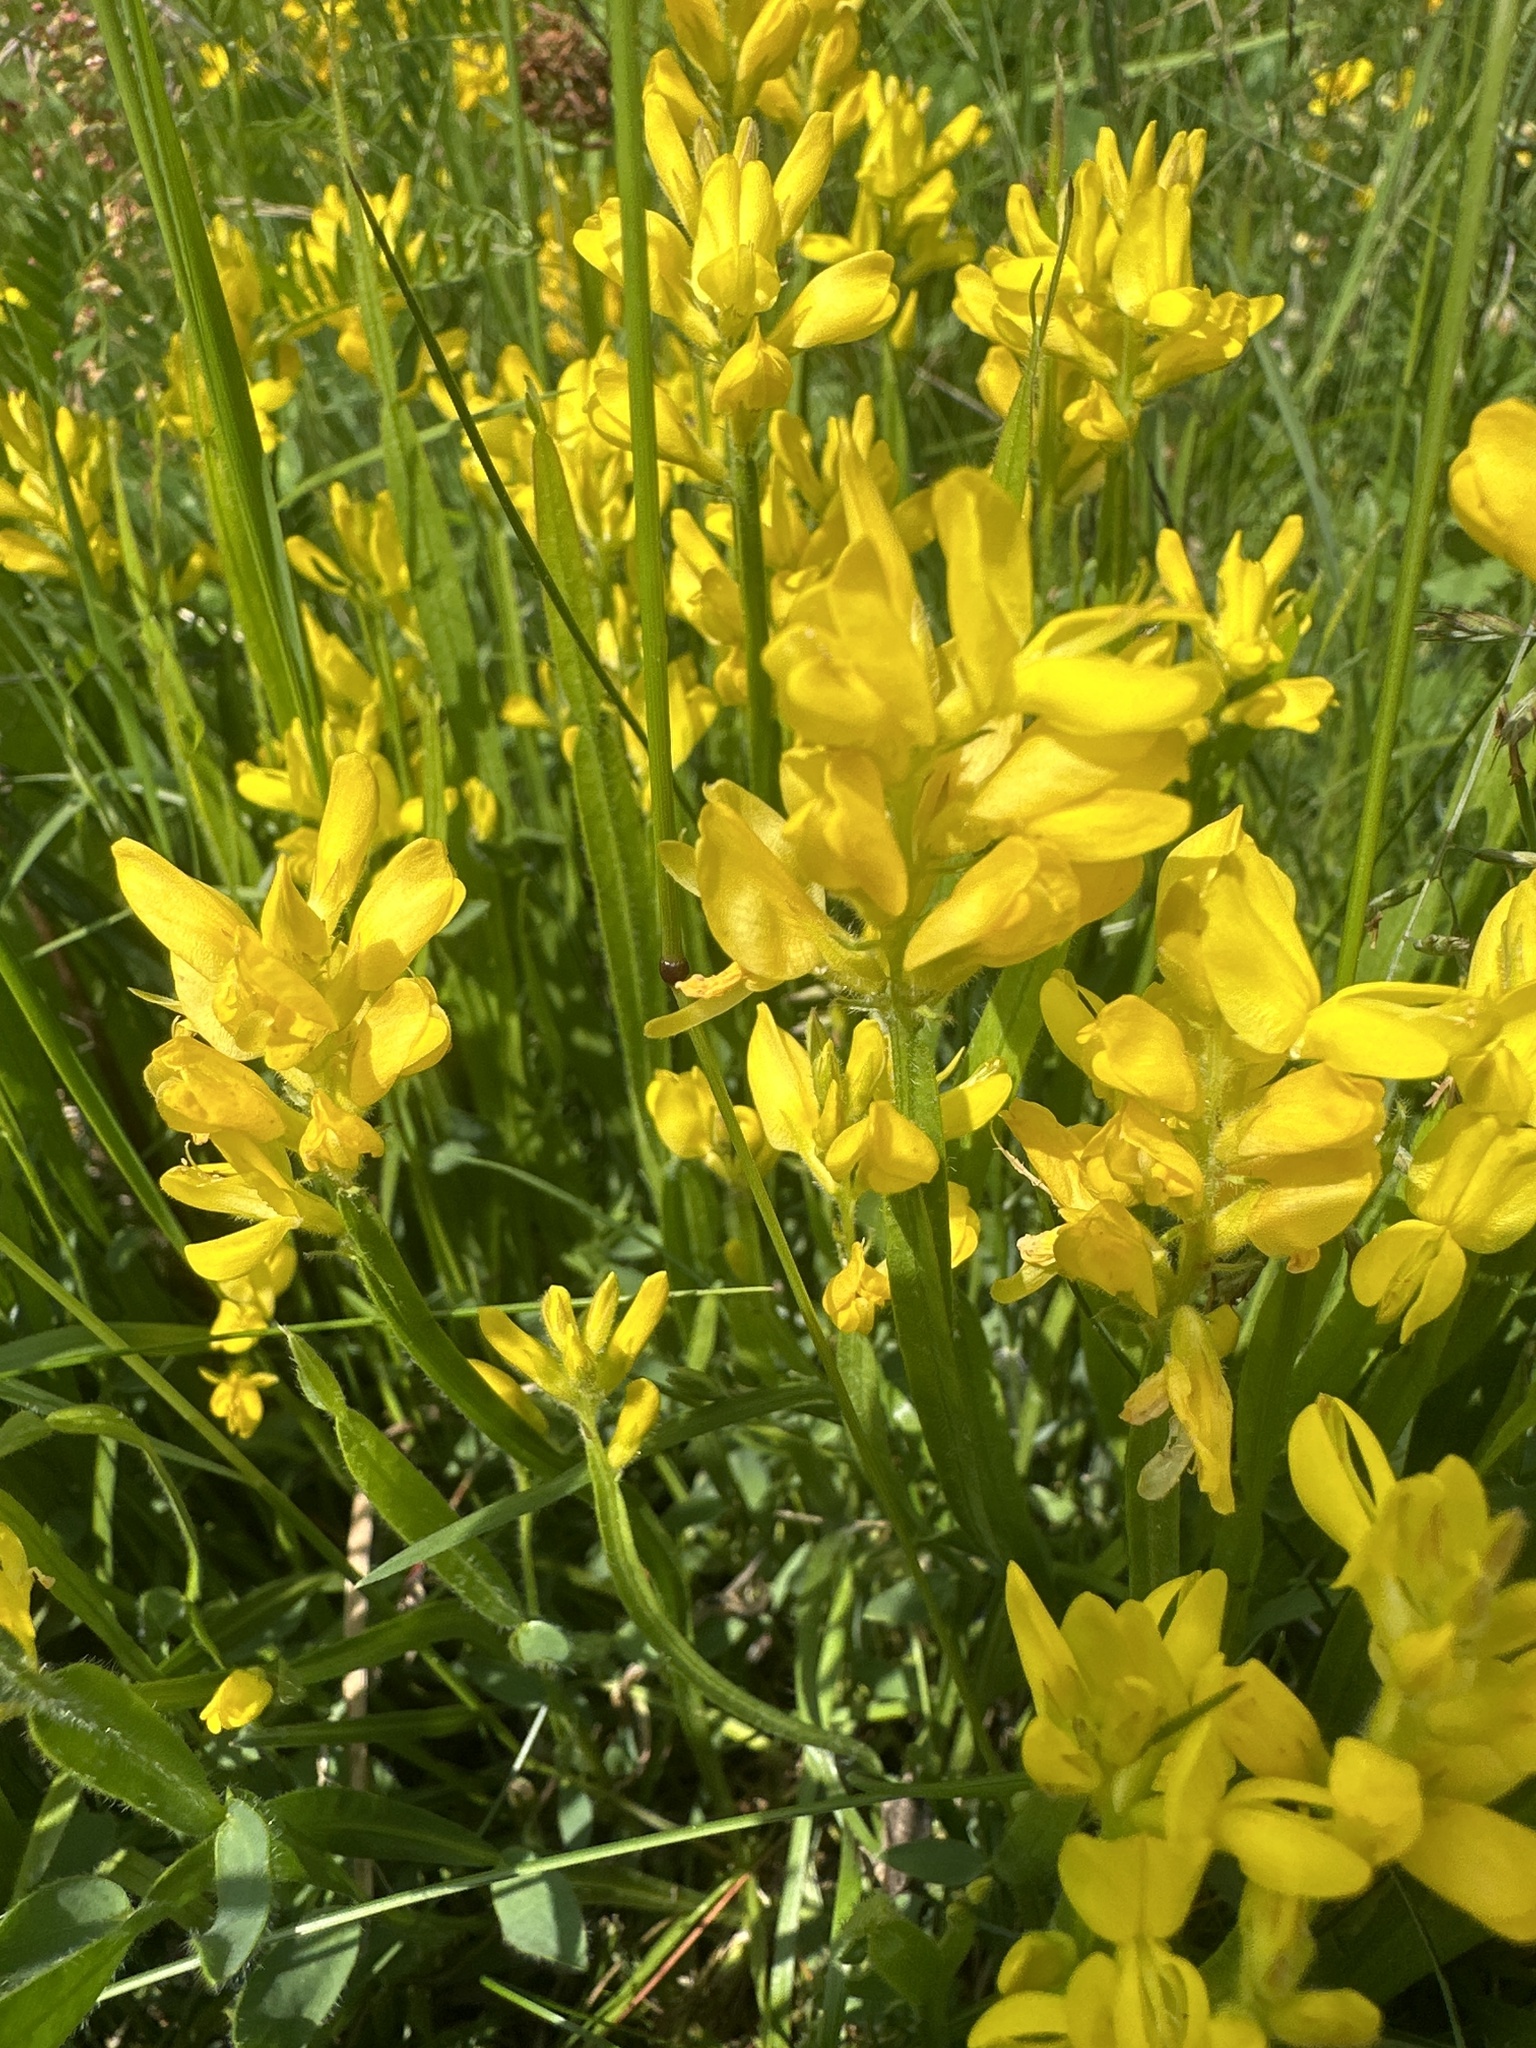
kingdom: Plantae
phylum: Tracheophyta
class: Magnoliopsida
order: Fabales
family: Fabaceae
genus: Genista
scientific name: Genista sagittalis
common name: Winged greenweed
